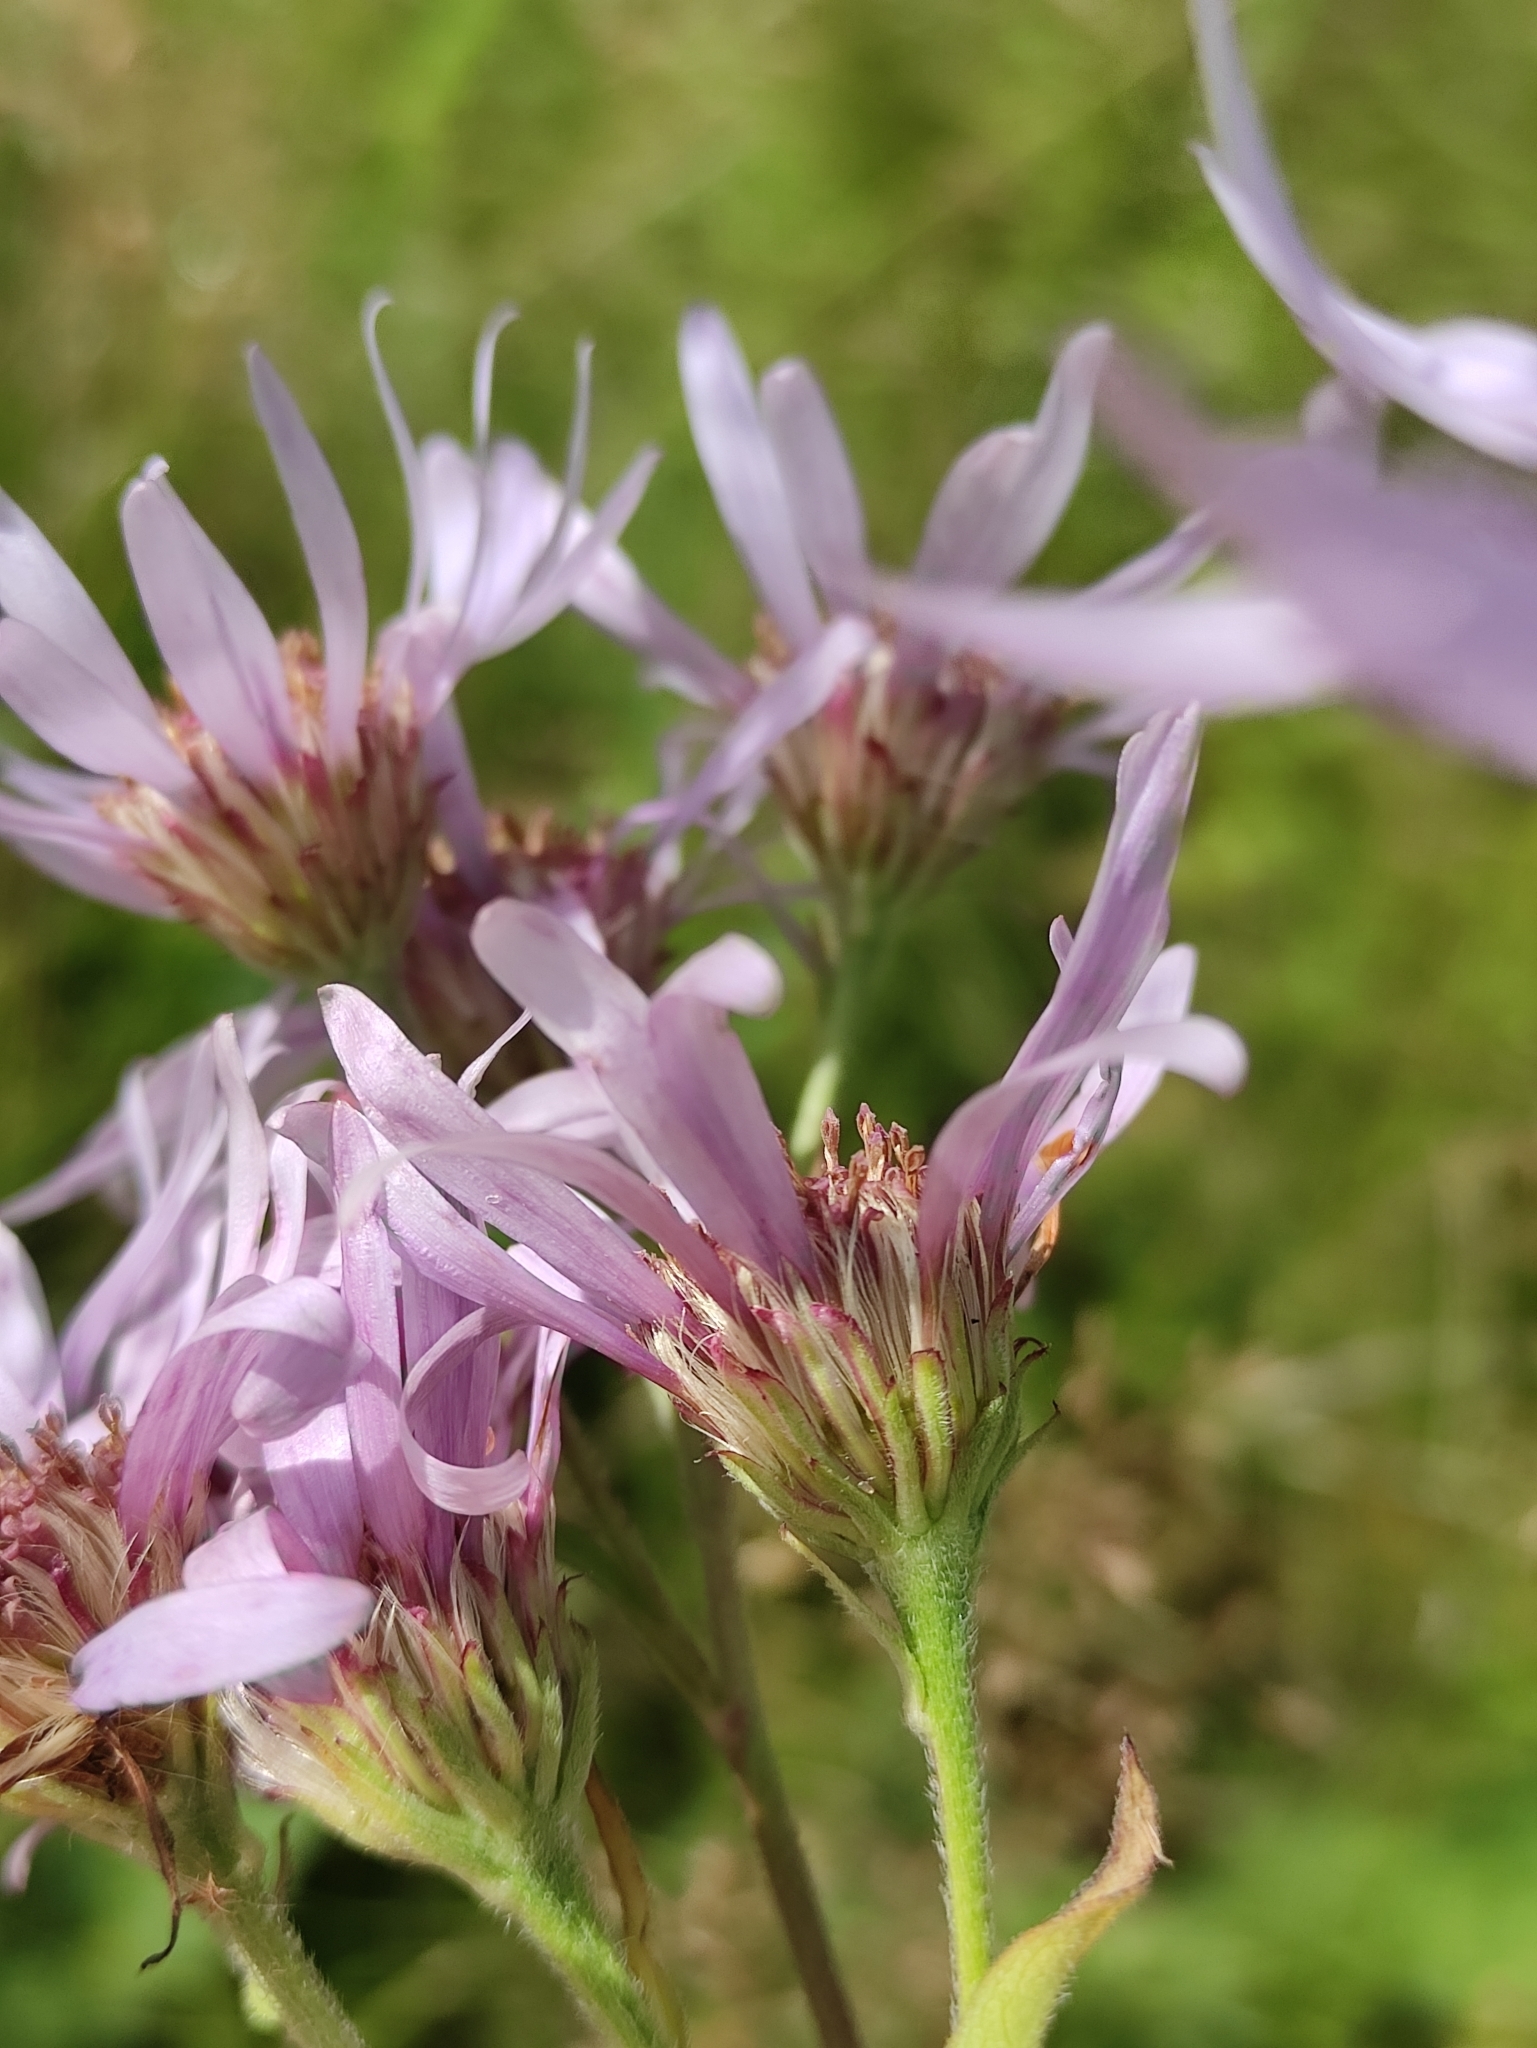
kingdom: Plantae
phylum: Tracheophyta
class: Magnoliopsida
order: Asterales
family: Asteraceae
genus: Aster
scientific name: Aster tataricus
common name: Tatarian aster
